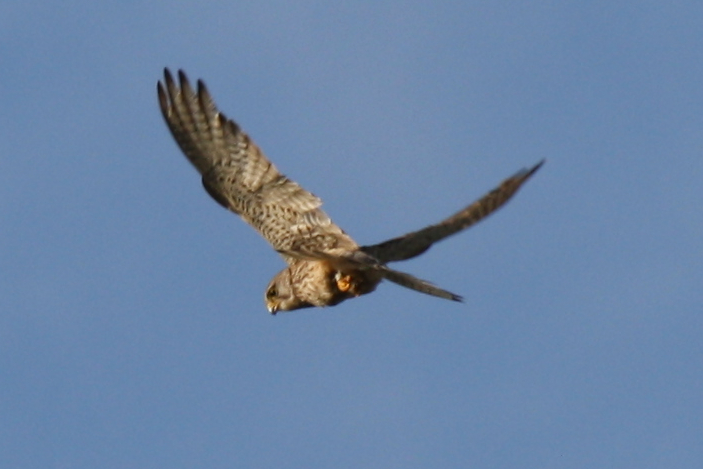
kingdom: Animalia
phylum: Chordata
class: Aves
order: Falconiformes
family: Falconidae
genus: Falco
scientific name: Falco tinnunculus
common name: Common kestrel
